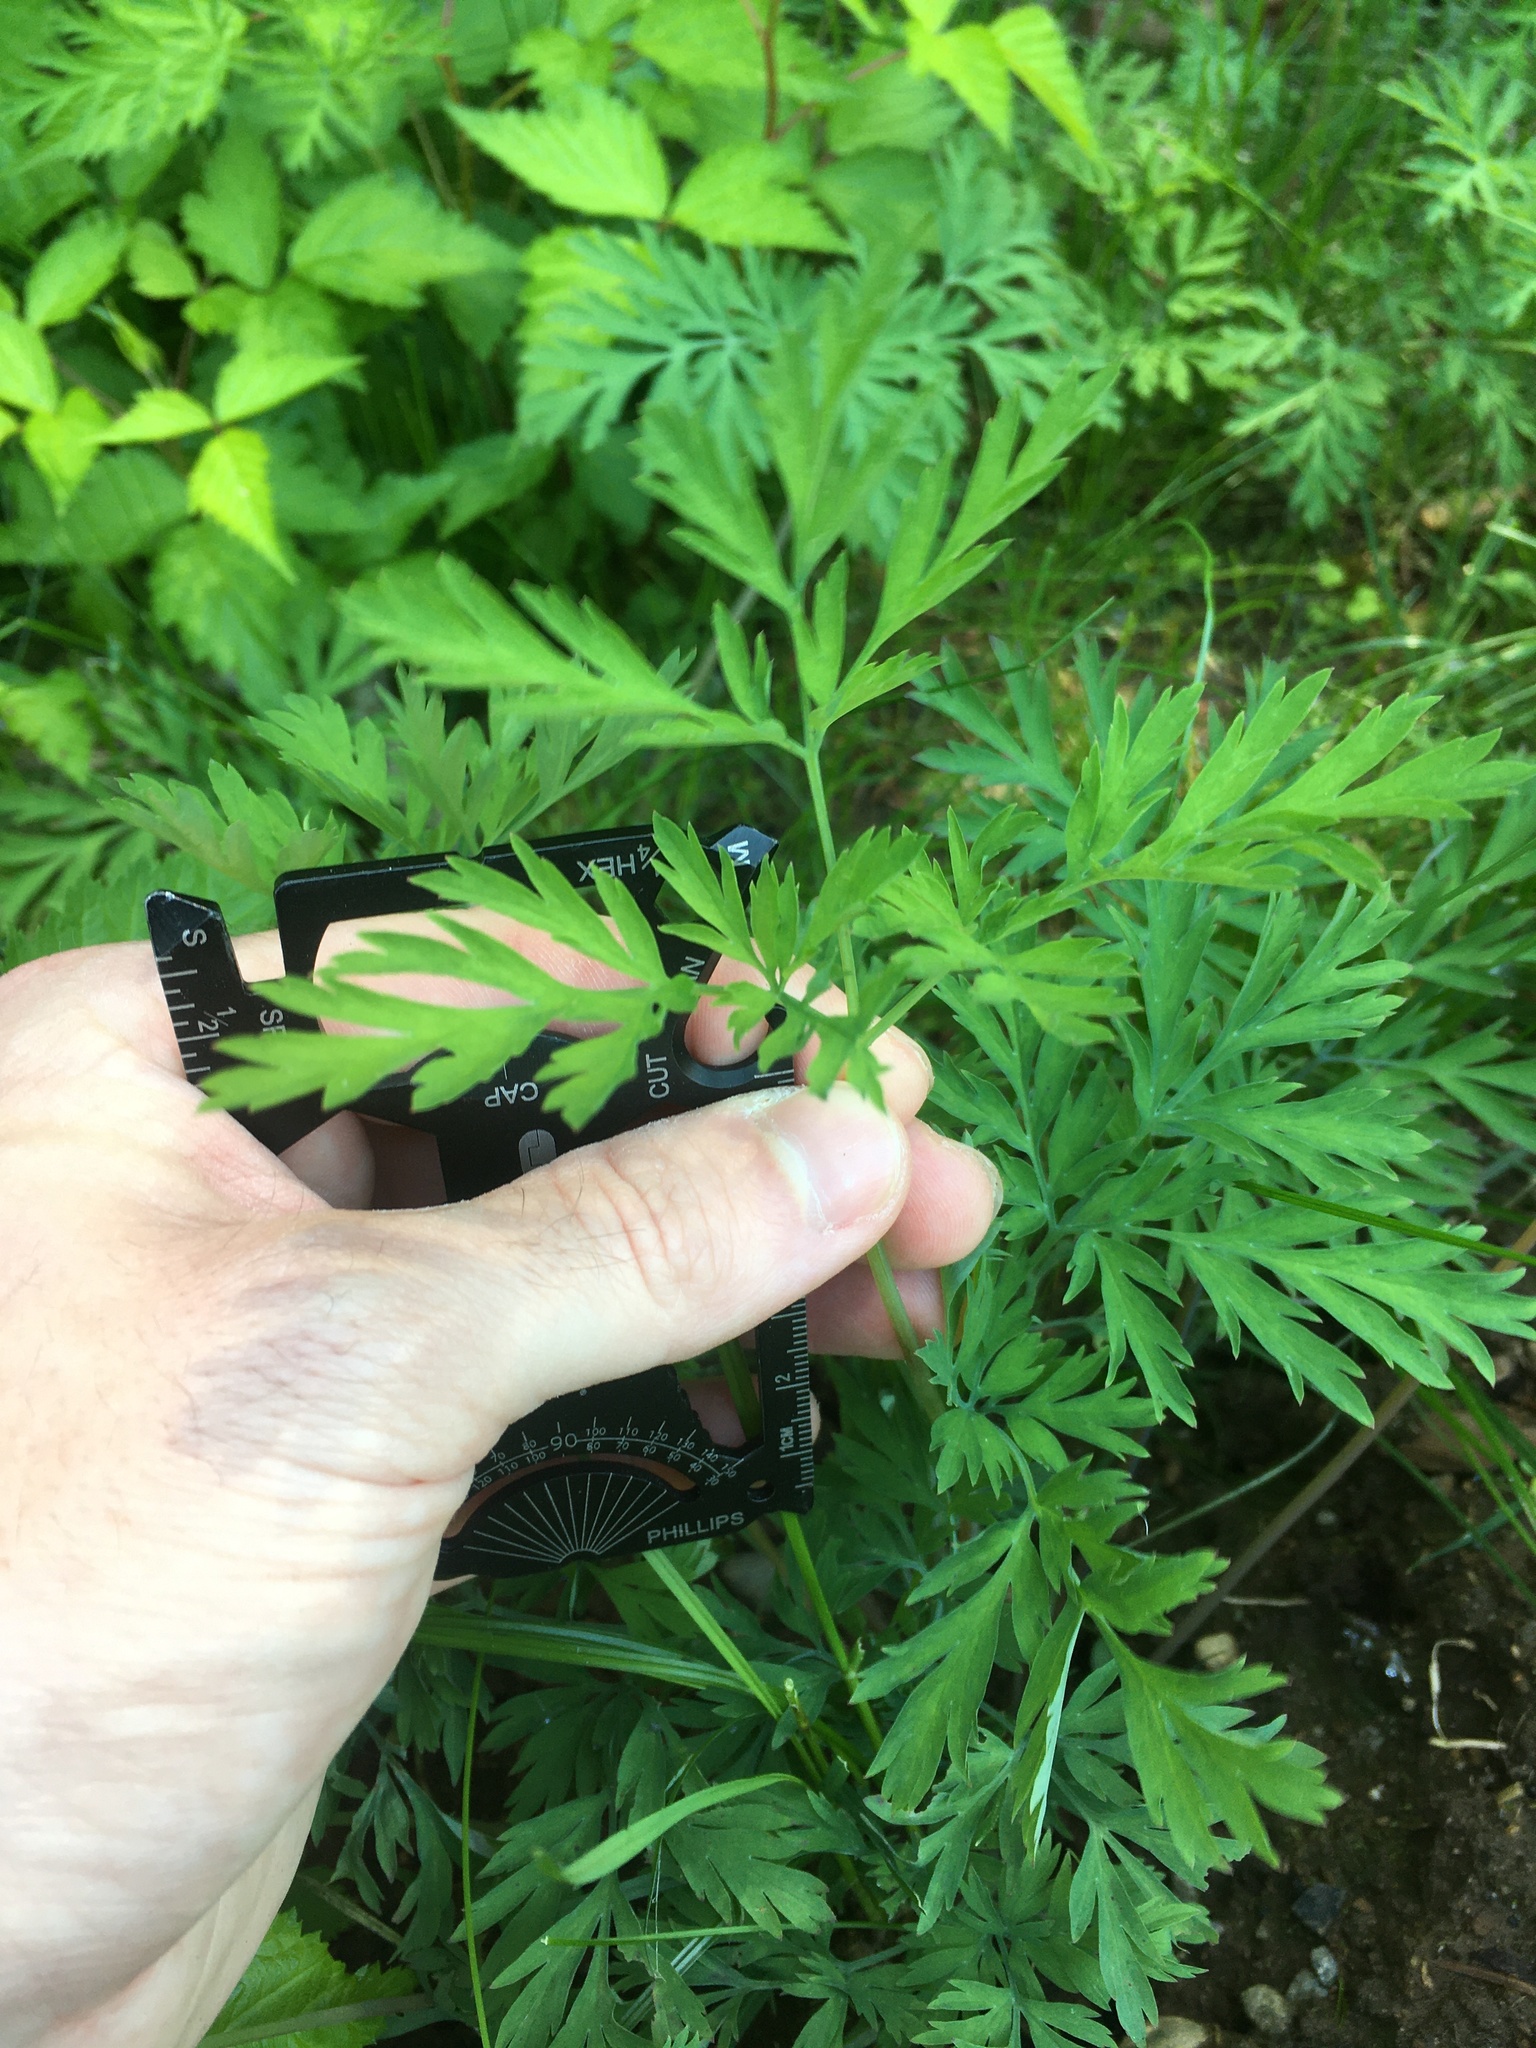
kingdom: Plantae
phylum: Tracheophyta
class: Magnoliopsida
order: Ranunculales
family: Papaveraceae
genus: Dicentra
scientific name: Dicentra formosa
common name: Bleeding-heart
